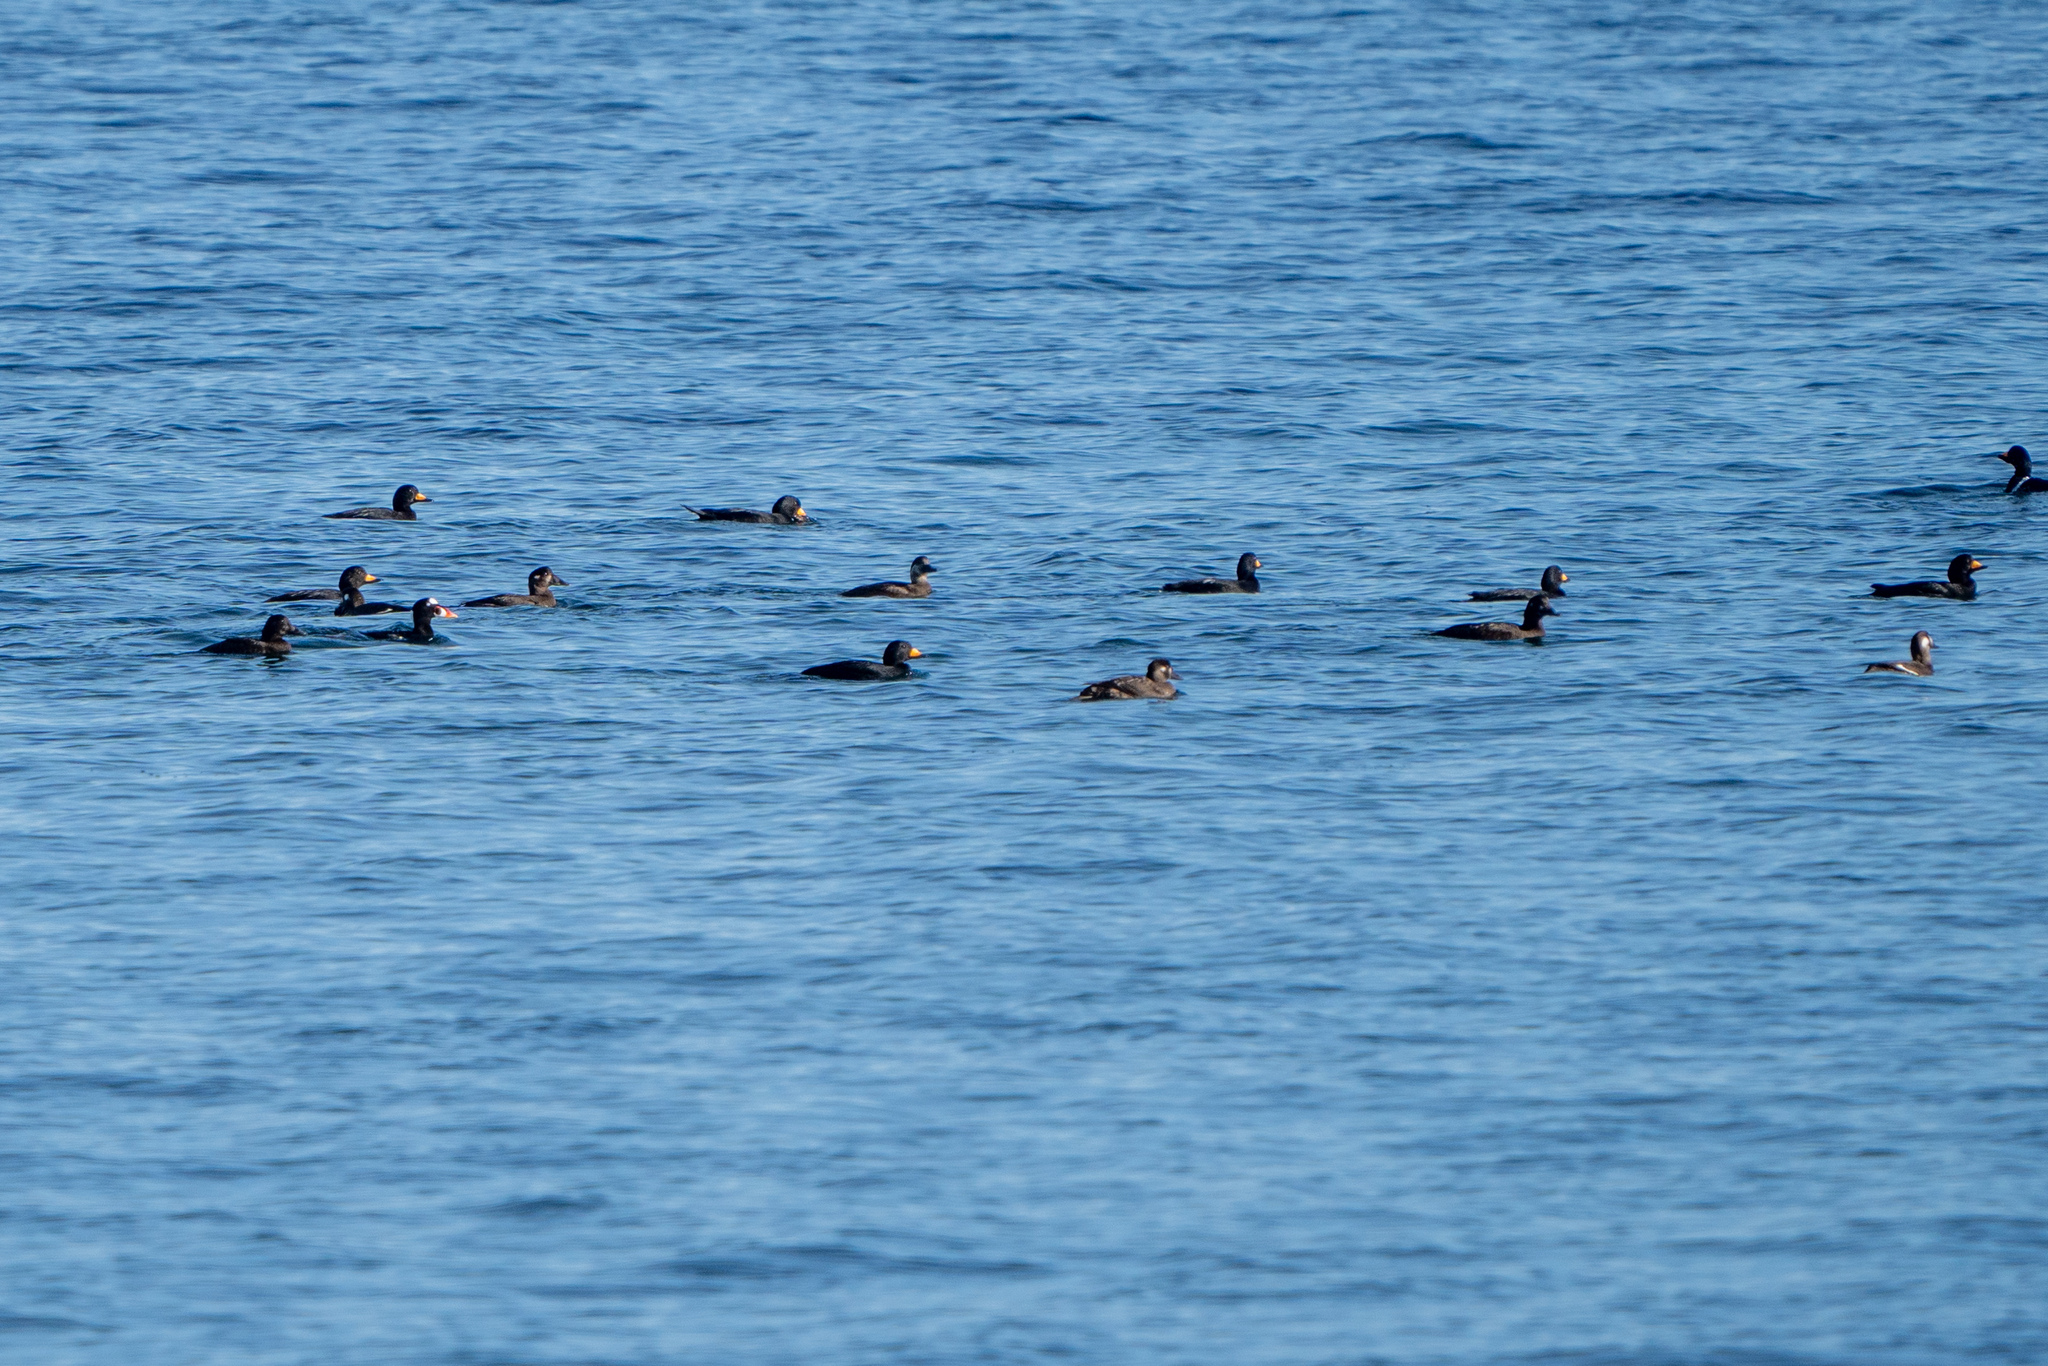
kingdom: Animalia
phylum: Chordata
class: Aves
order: Anseriformes
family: Anatidae
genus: Melanitta
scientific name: Melanitta americana
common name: Black scoter
